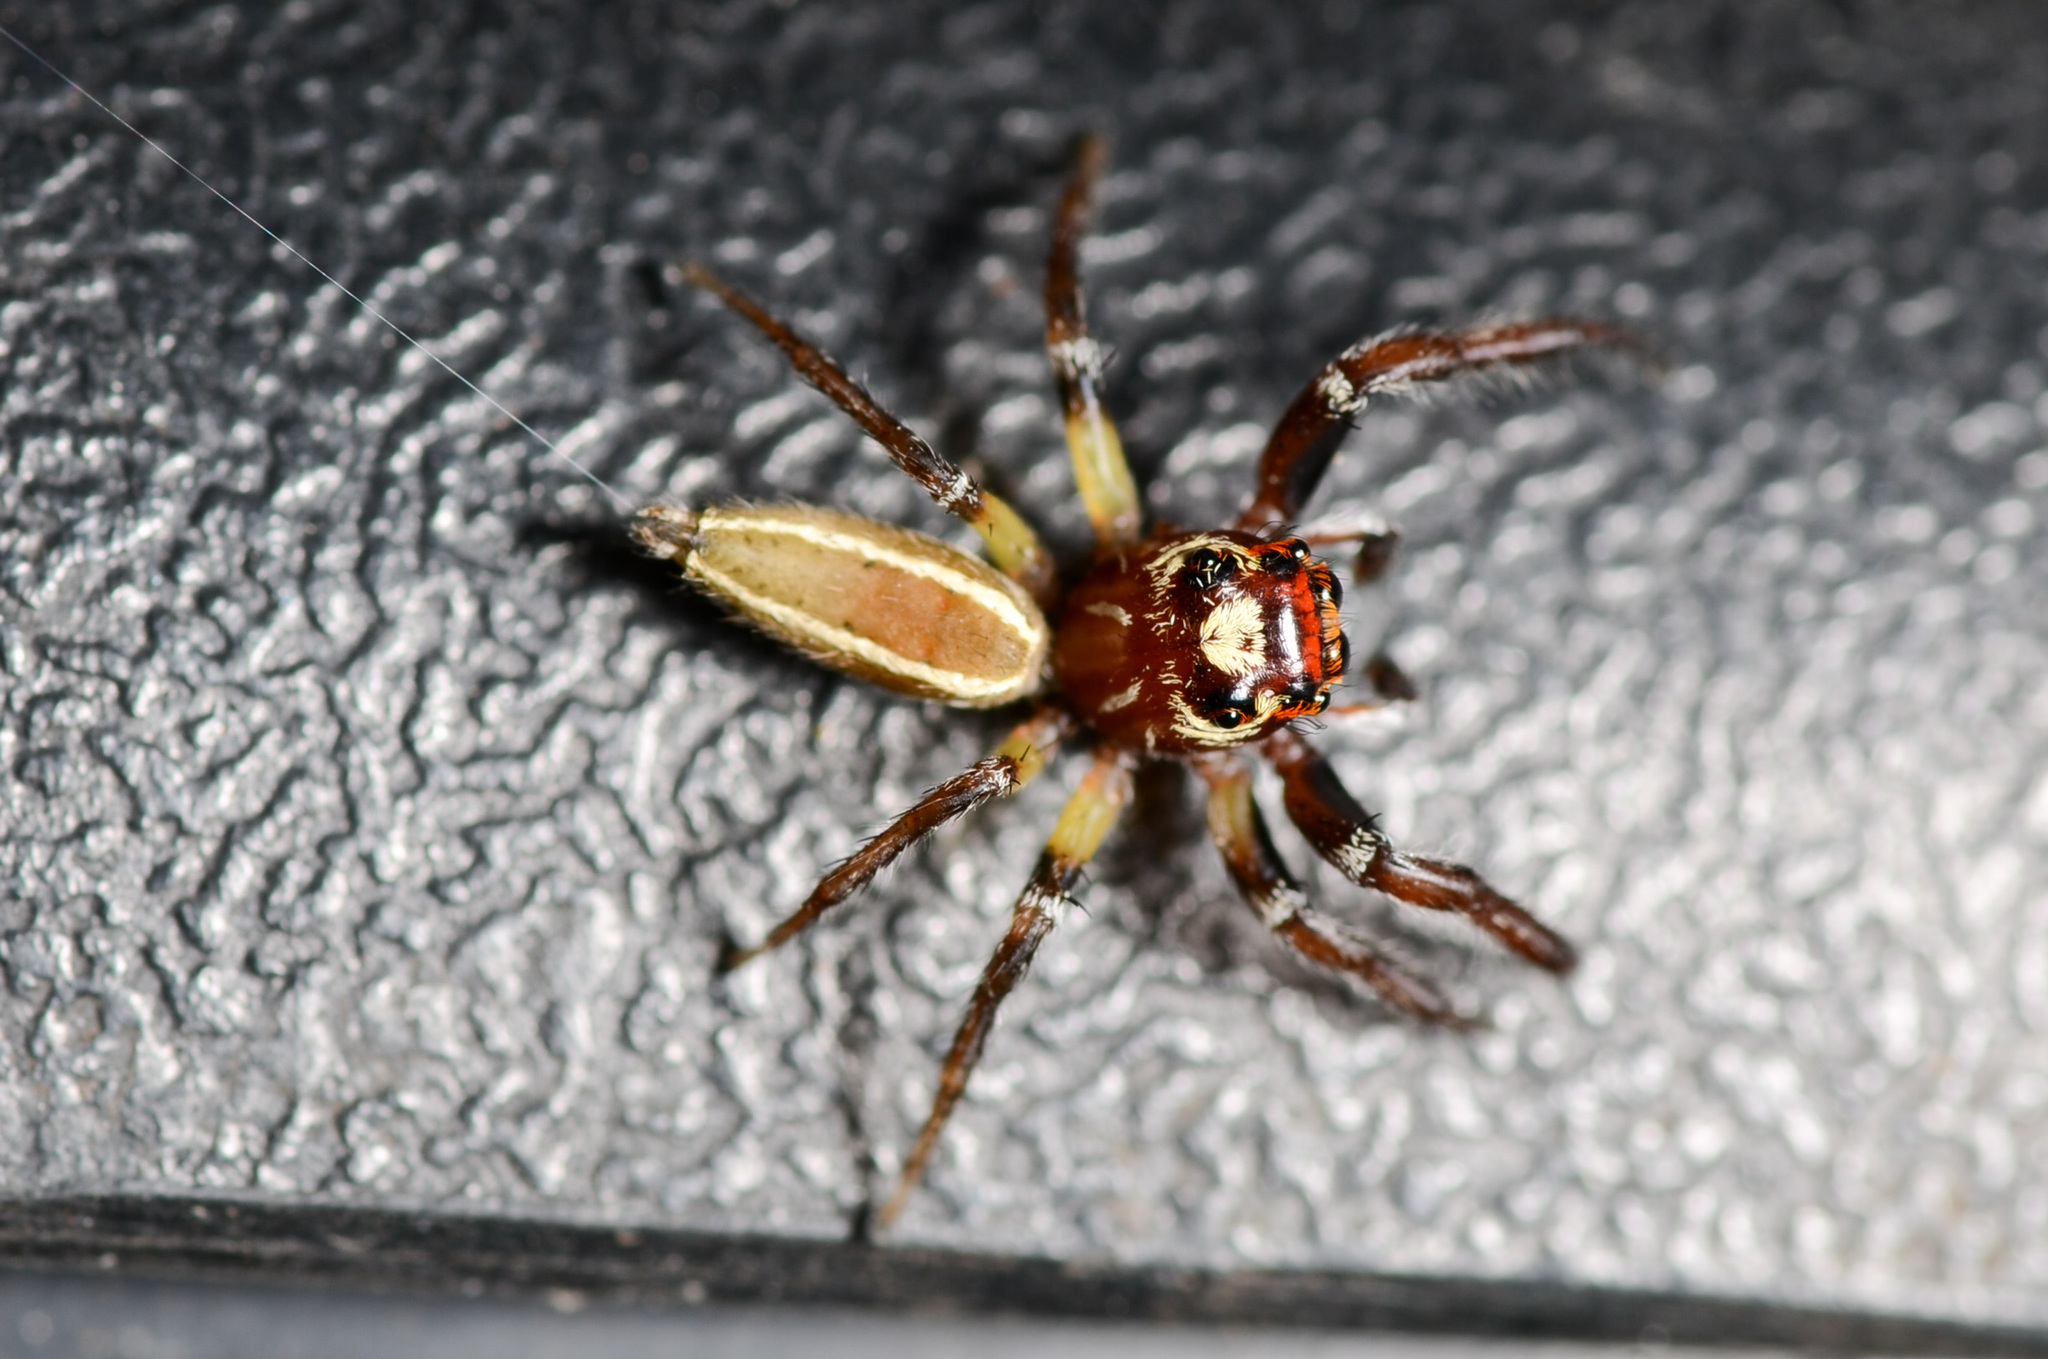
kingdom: Animalia
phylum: Arthropoda
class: Arachnida
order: Araneae
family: Salticidae
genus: Colonus
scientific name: Colonus sylvanus
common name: Jumping spiders
